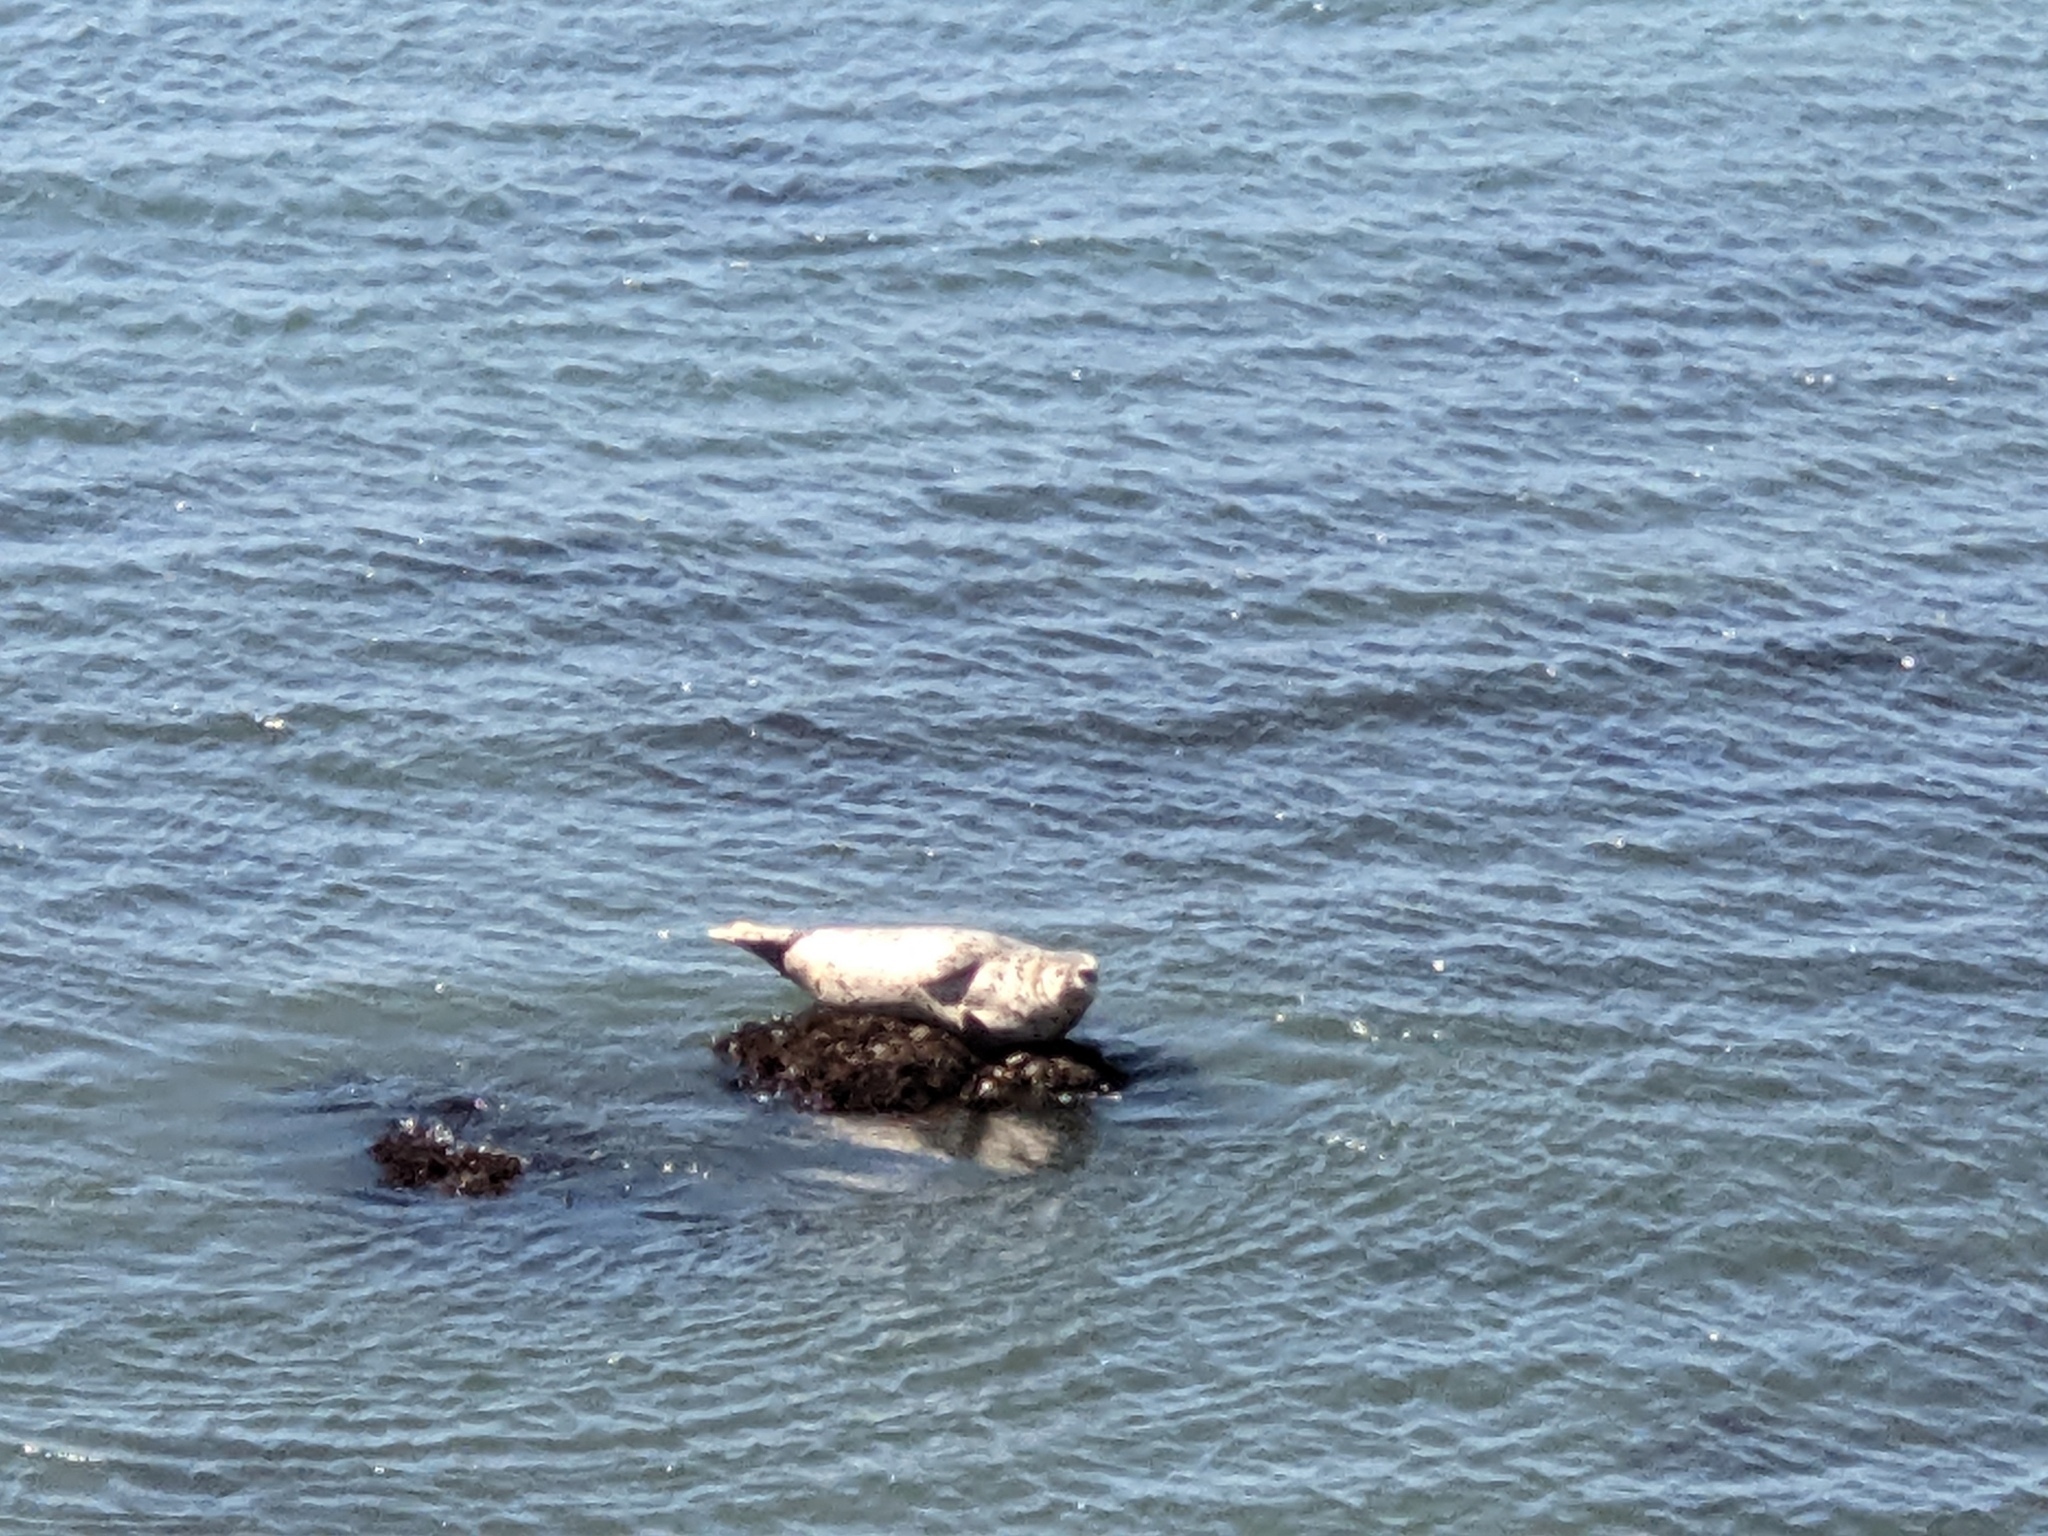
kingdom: Animalia
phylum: Chordata
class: Mammalia
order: Carnivora
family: Phocidae
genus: Phoca
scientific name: Phoca vitulina
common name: Harbor seal
